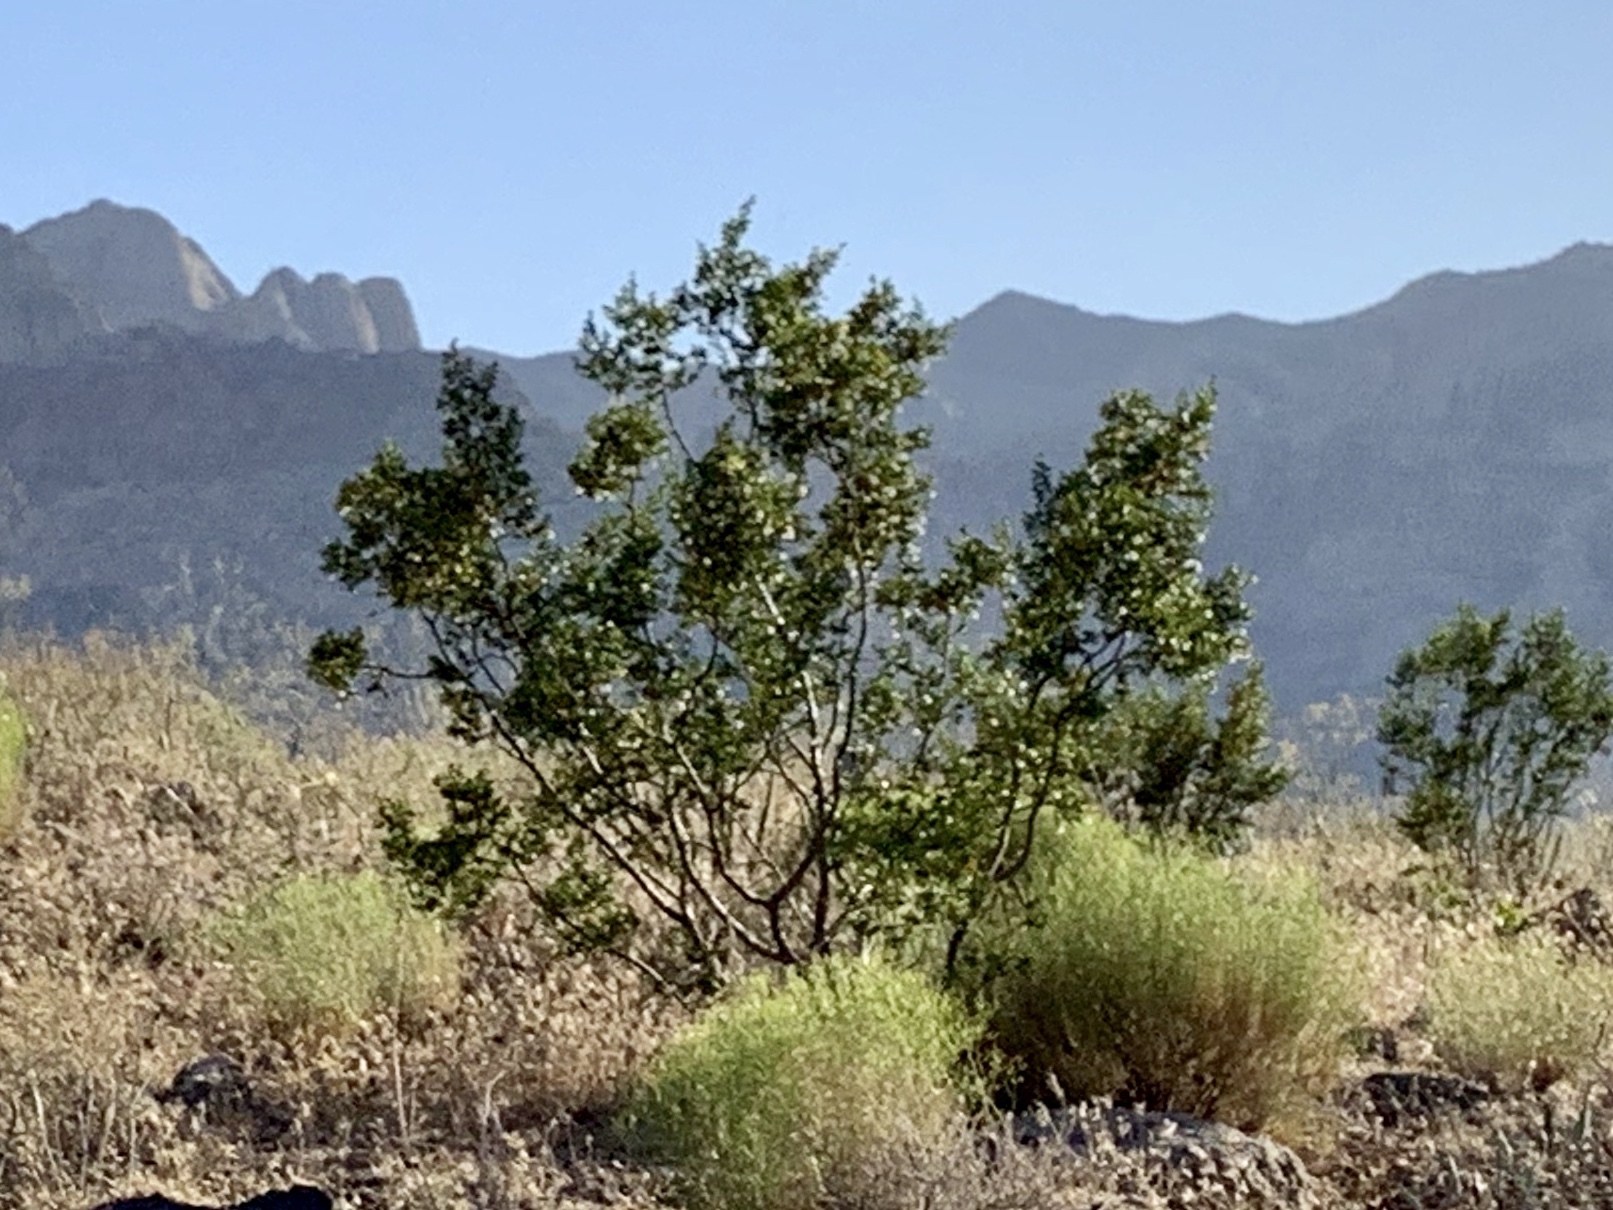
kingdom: Plantae
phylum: Tracheophyta
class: Magnoliopsida
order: Zygophyllales
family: Zygophyllaceae
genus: Larrea
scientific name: Larrea tridentata
